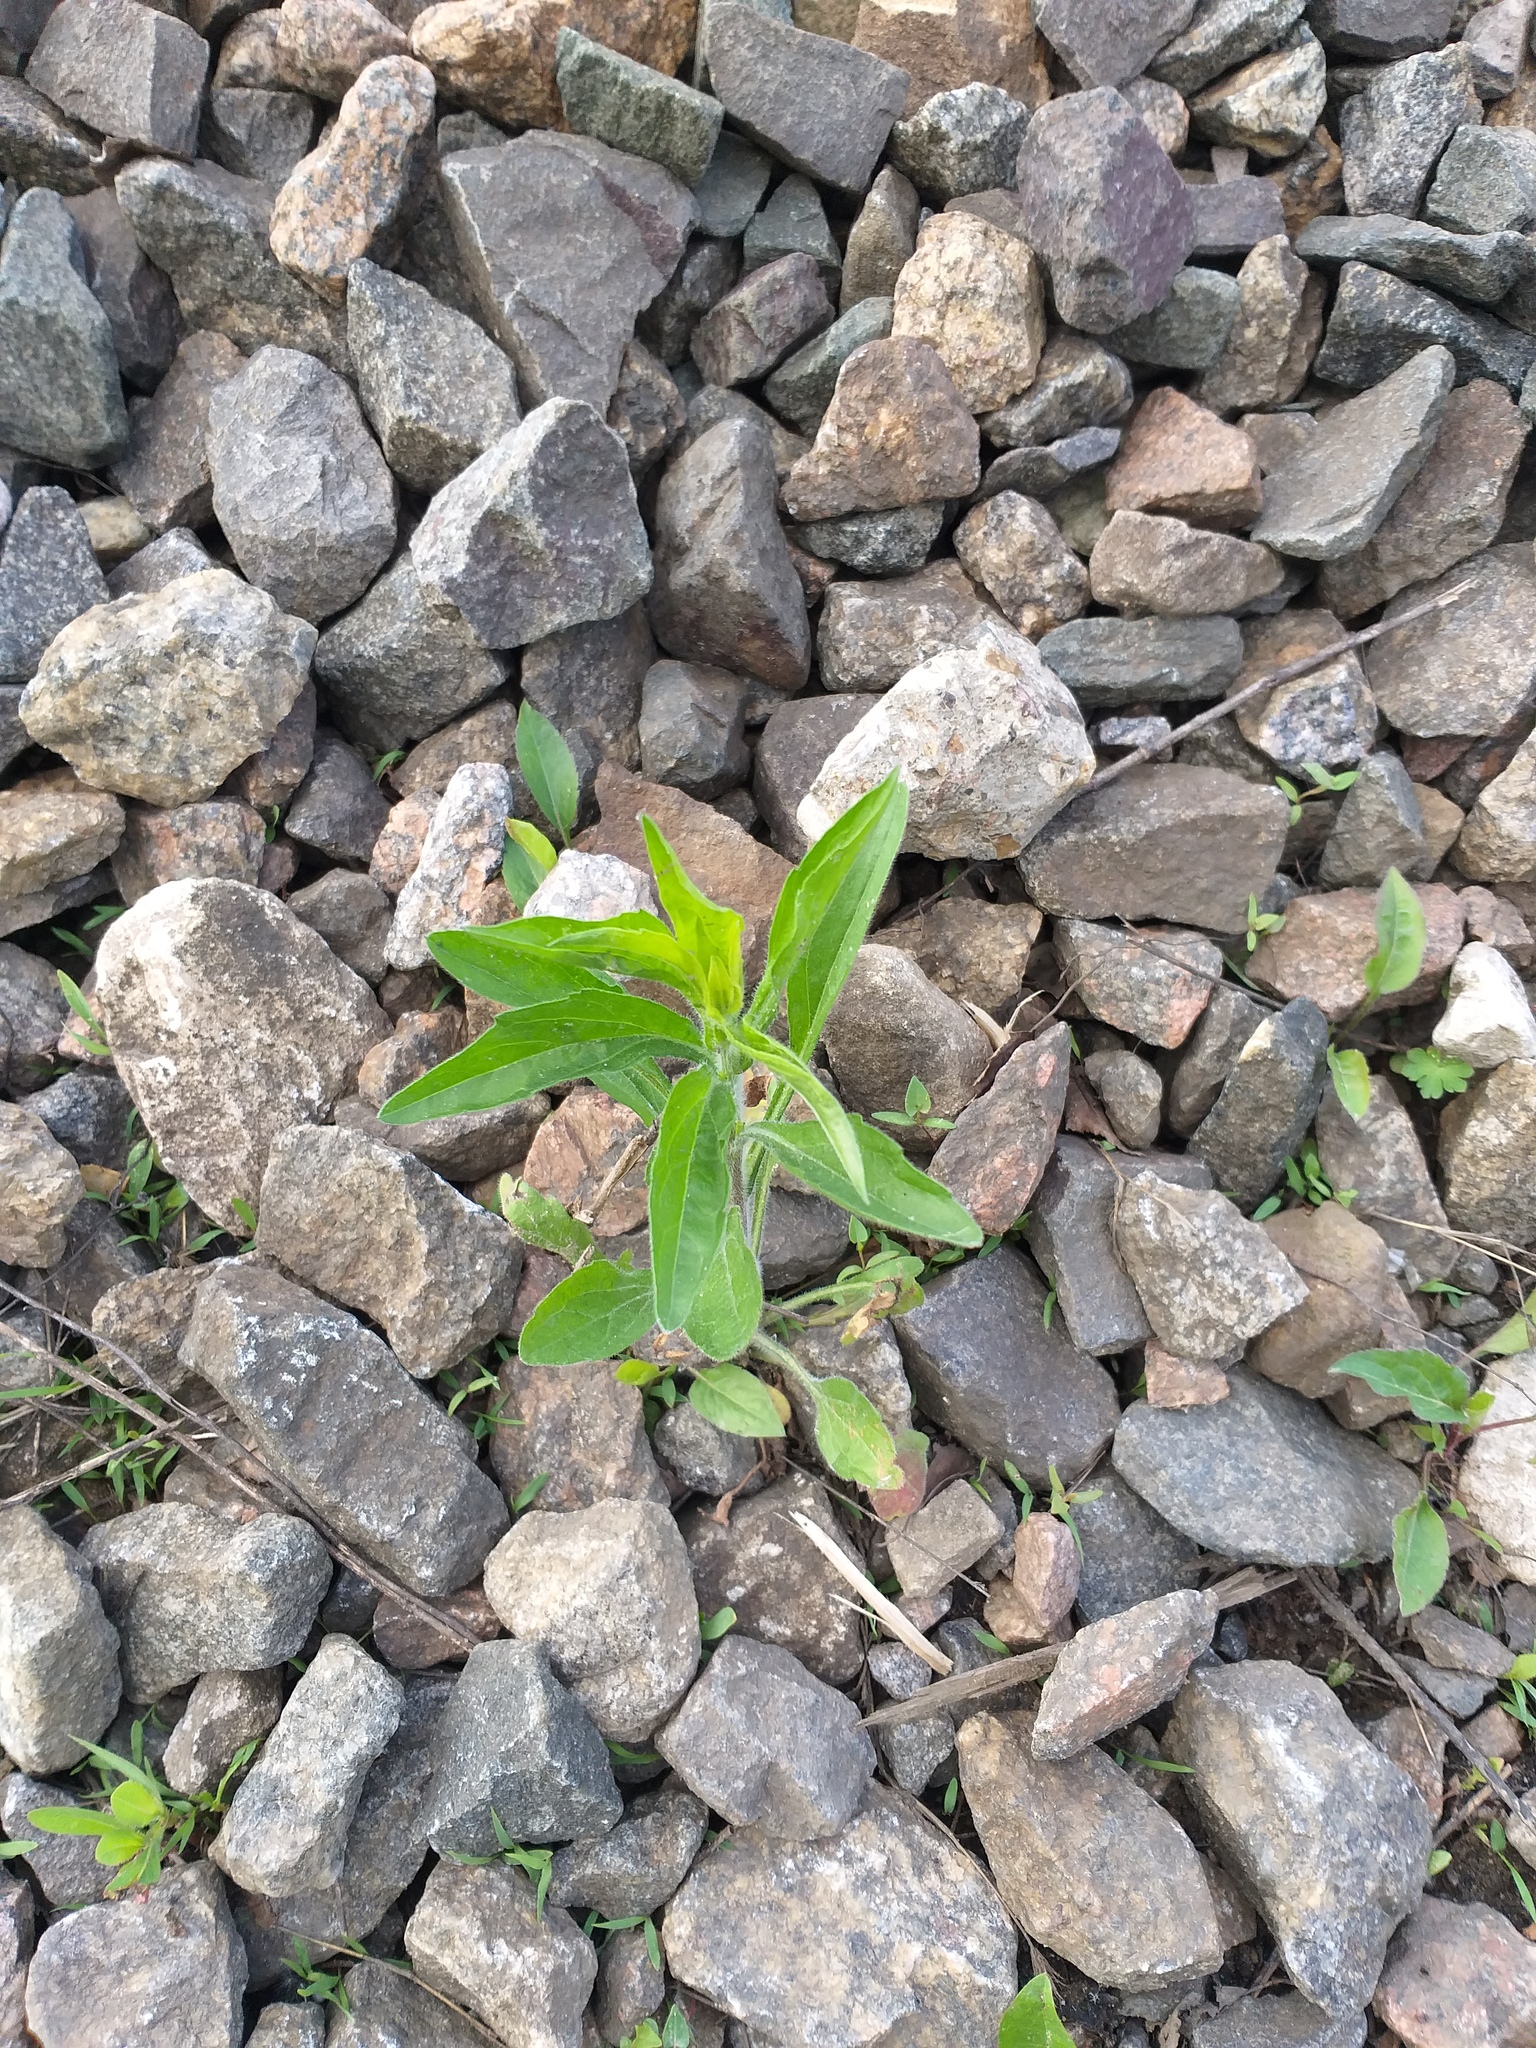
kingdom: Plantae
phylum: Tracheophyta
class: Magnoliopsida
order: Asterales
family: Asteraceae
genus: Erigeron
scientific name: Erigeron annuus
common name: Tall fleabane
